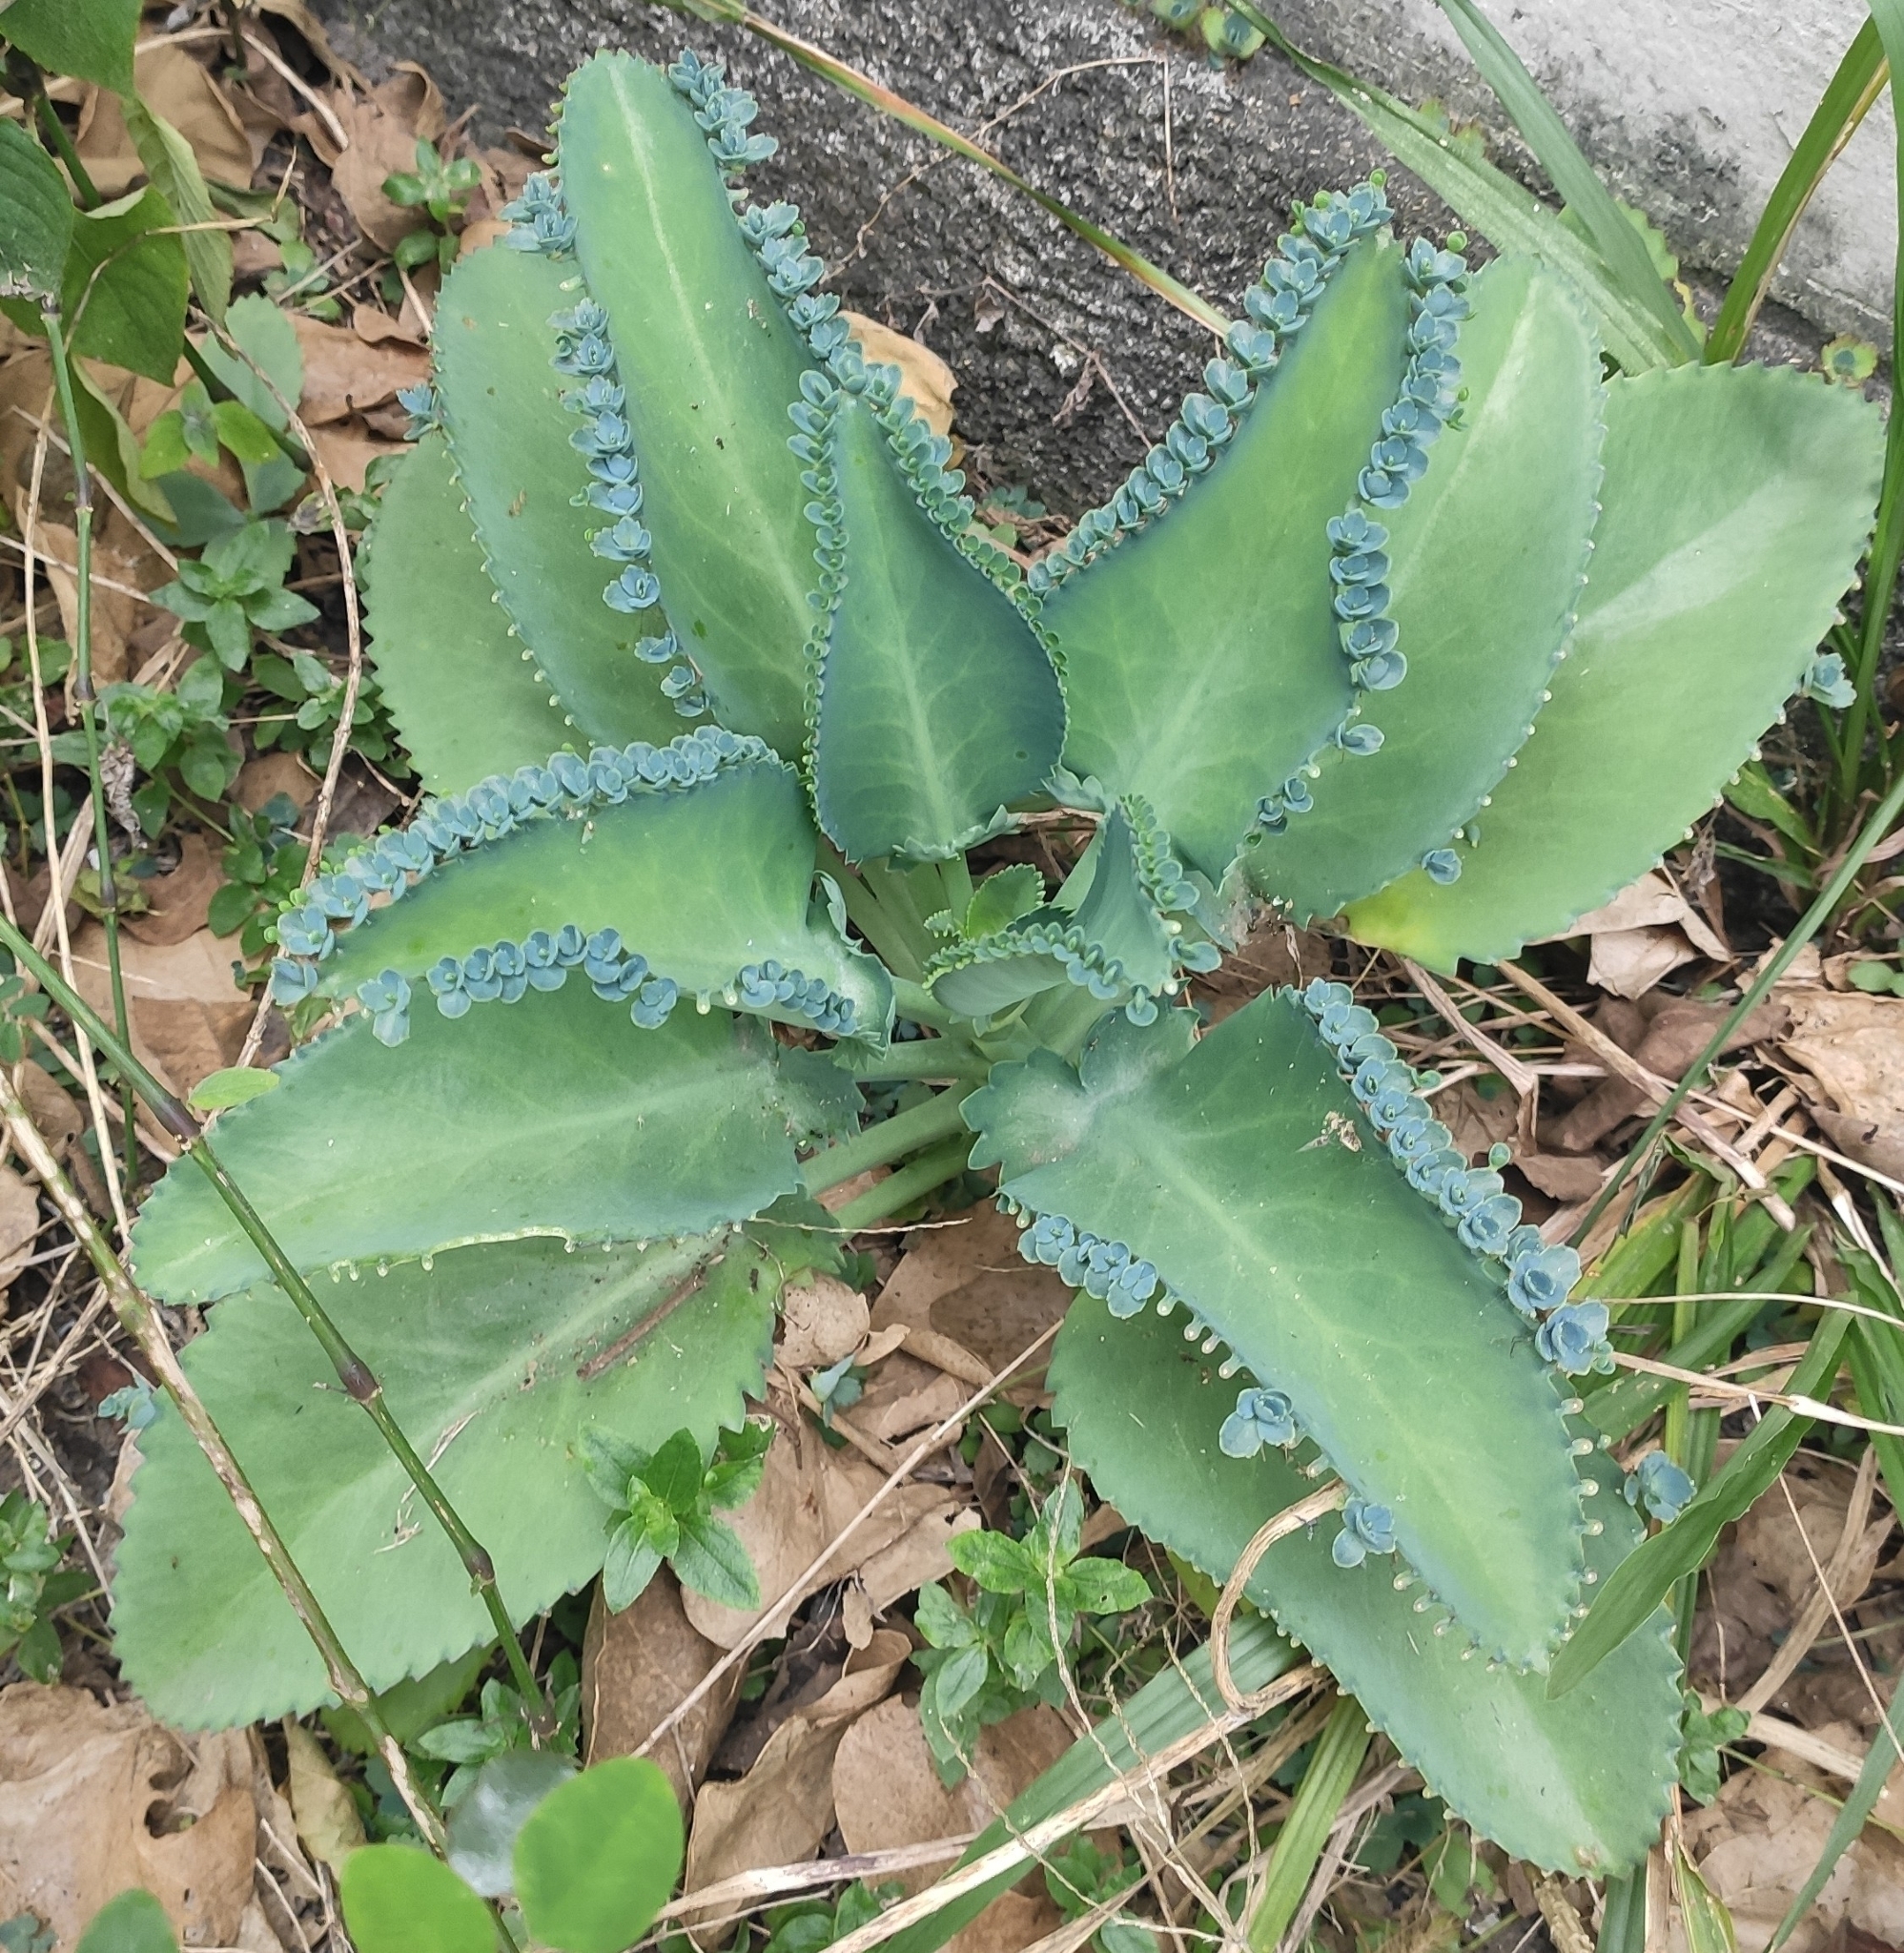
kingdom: Plantae
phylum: Tracheophyta
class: Magnoliopsida
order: Saxifragales
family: Crassulaceae
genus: Kalanchoe
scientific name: Kalanchoe laetivirens
